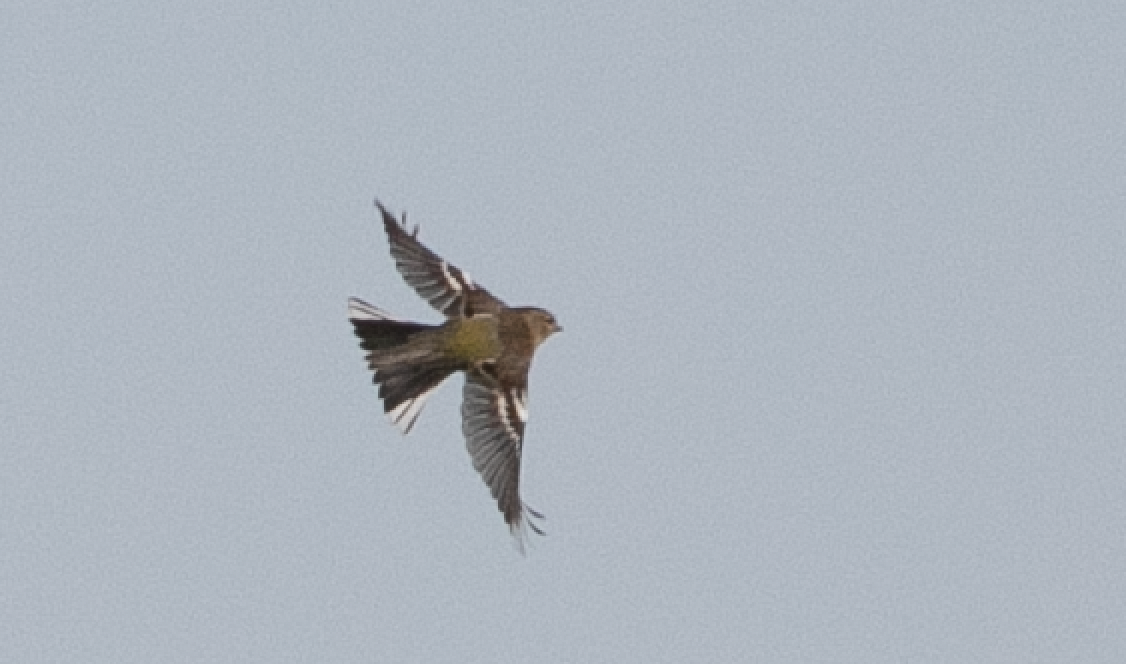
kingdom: Animalia
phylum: Chordata
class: Aves
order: Passeriformes
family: Fringillidae
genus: Fringilla
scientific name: Fringilla coelebs
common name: Common chaffinch
